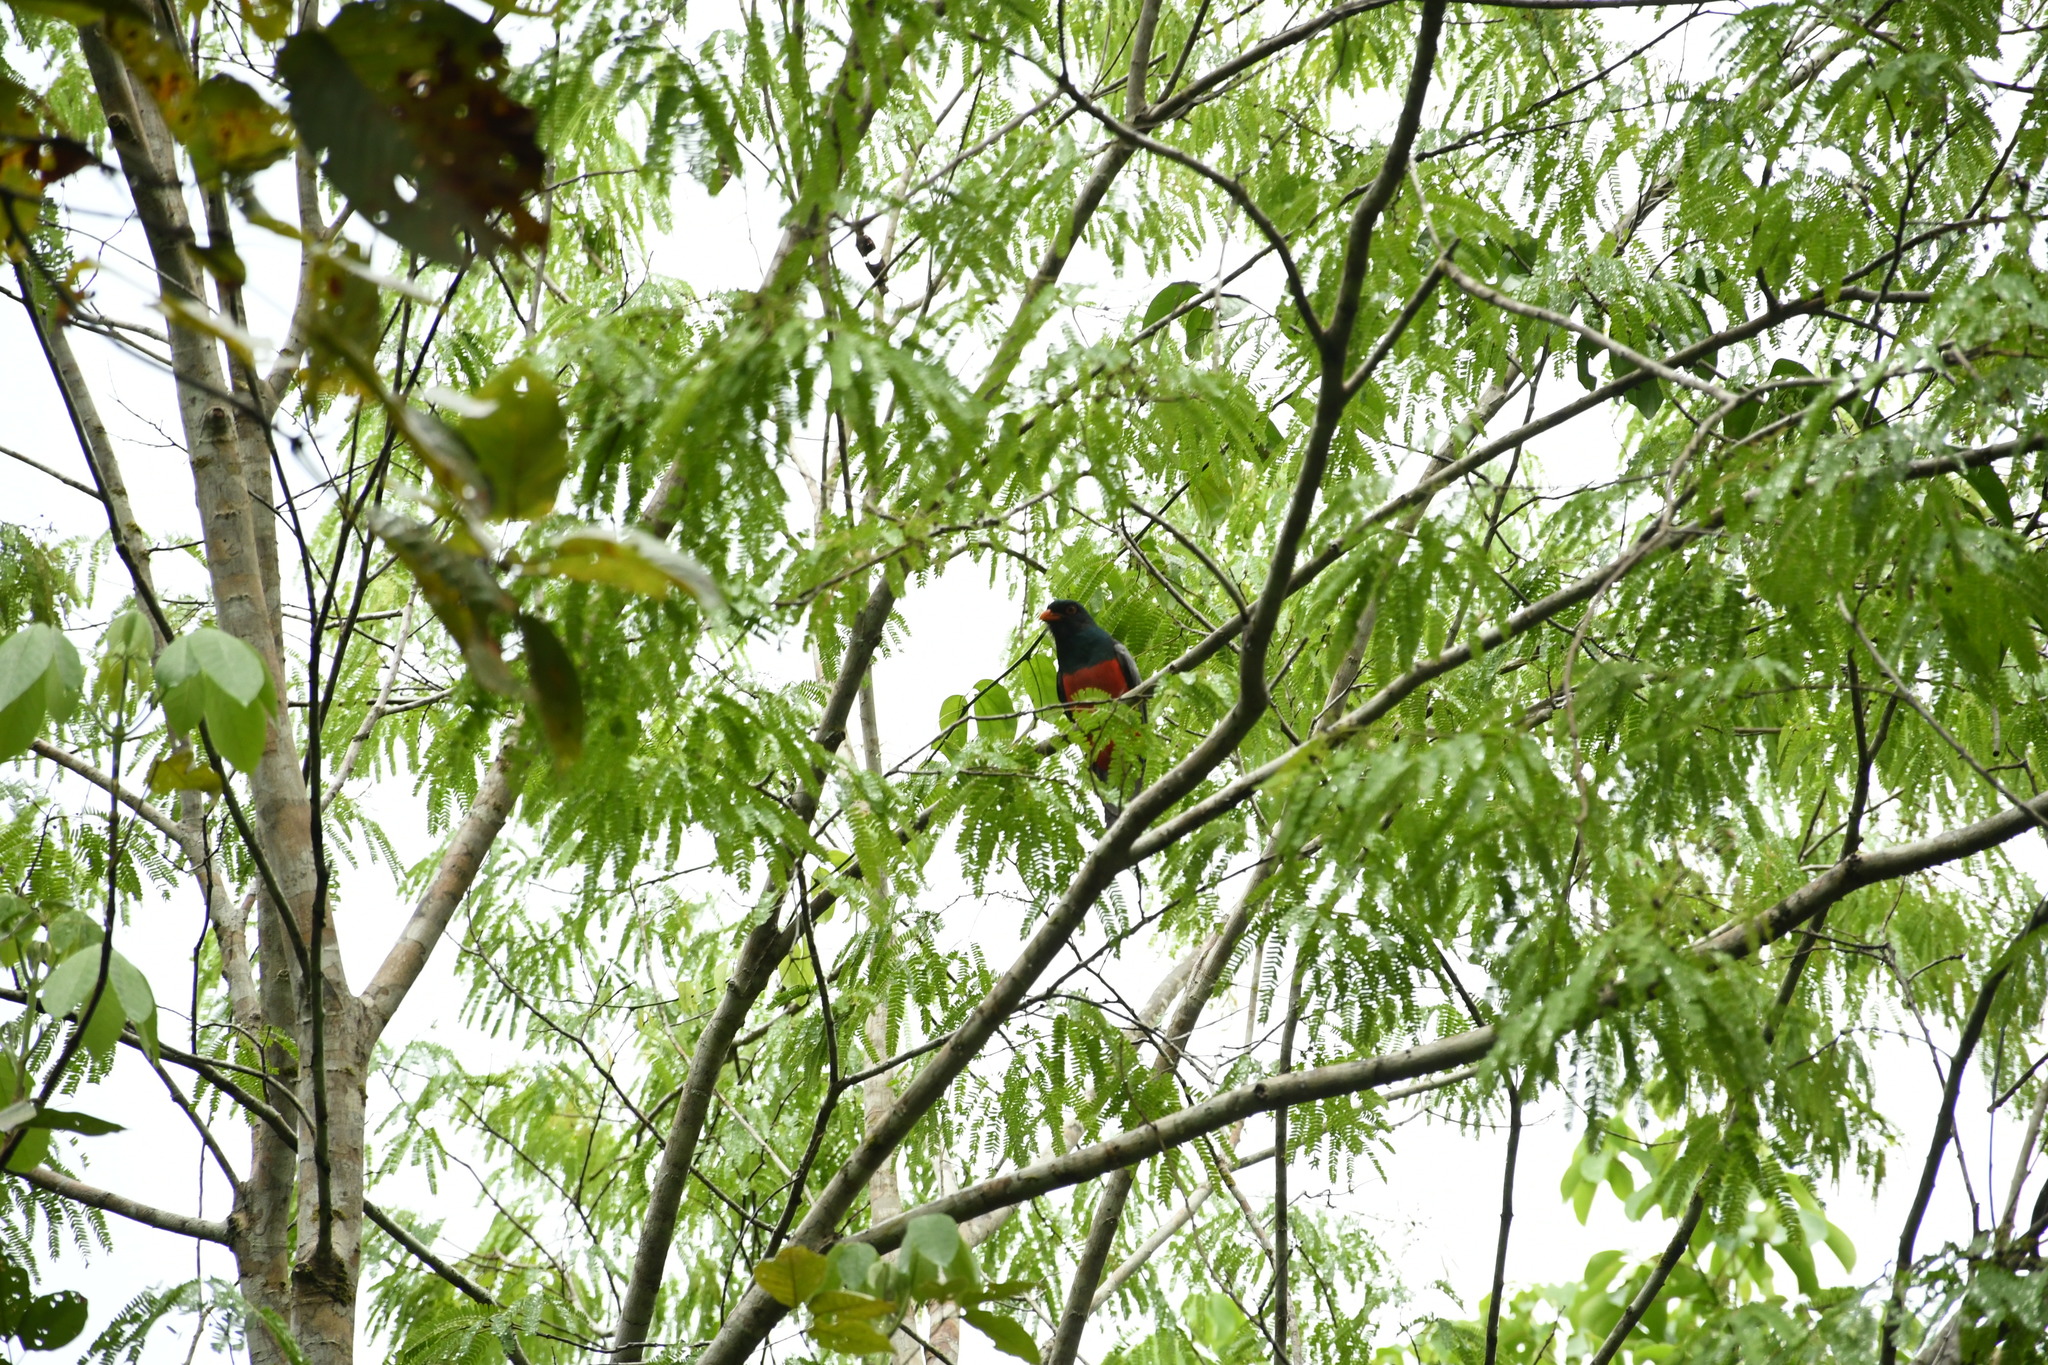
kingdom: Animalia
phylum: Chordata
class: Aves
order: Trogoniformes
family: Trogonidae
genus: Trogon
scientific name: Trogon massena
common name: Slaty-tailed trogon
